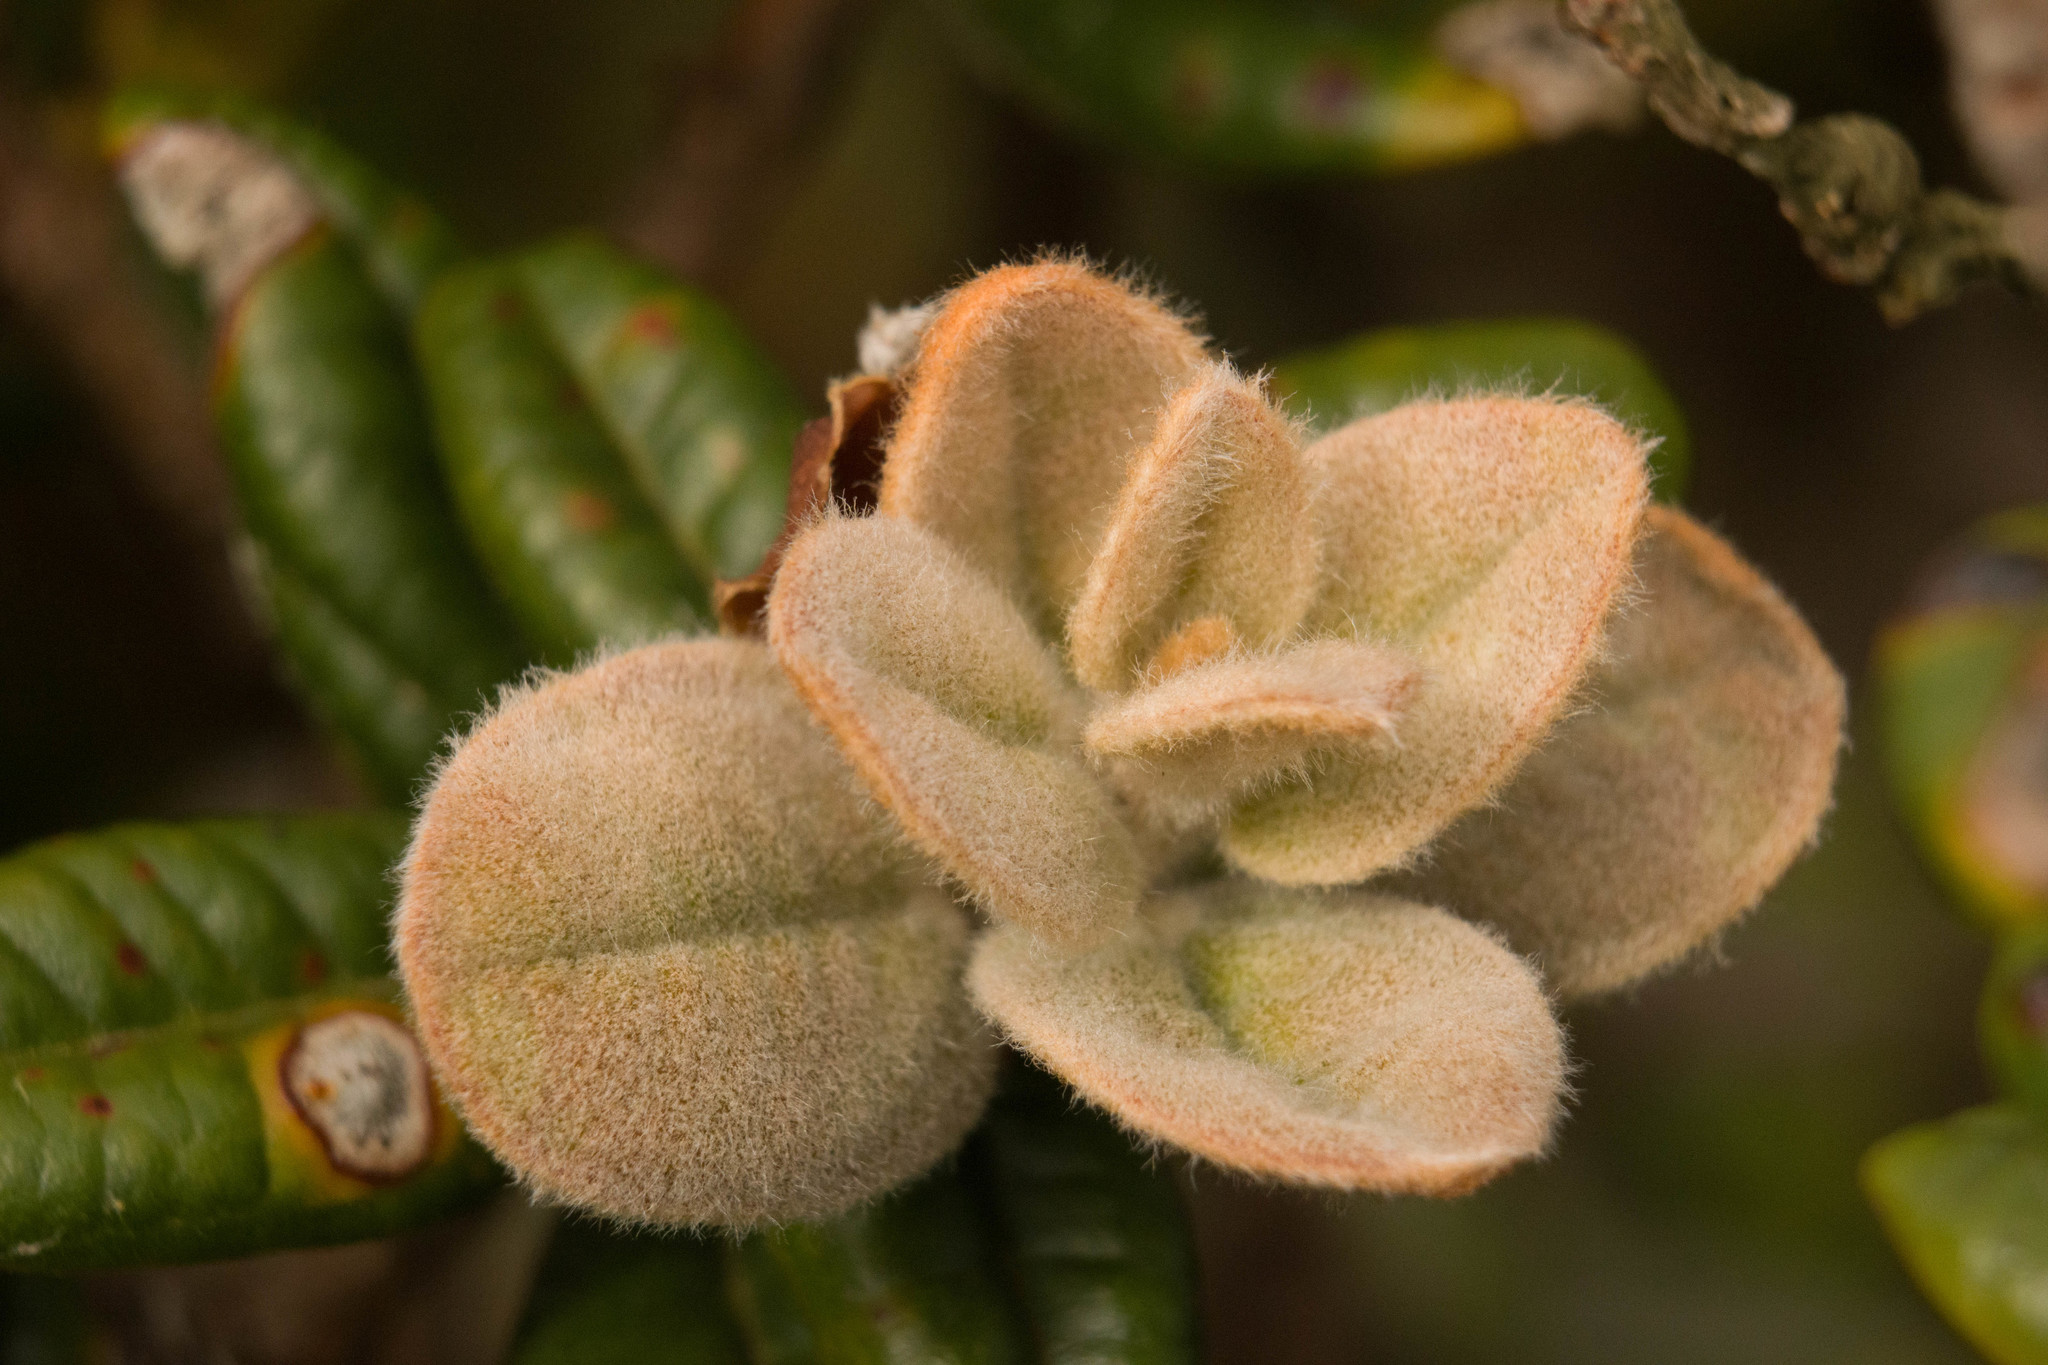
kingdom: Plantae
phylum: Tracheophyta
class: Magnoliopsida
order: Myrtales
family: Myrtaceae
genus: Metrosideros
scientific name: Metrosideros rugosa
